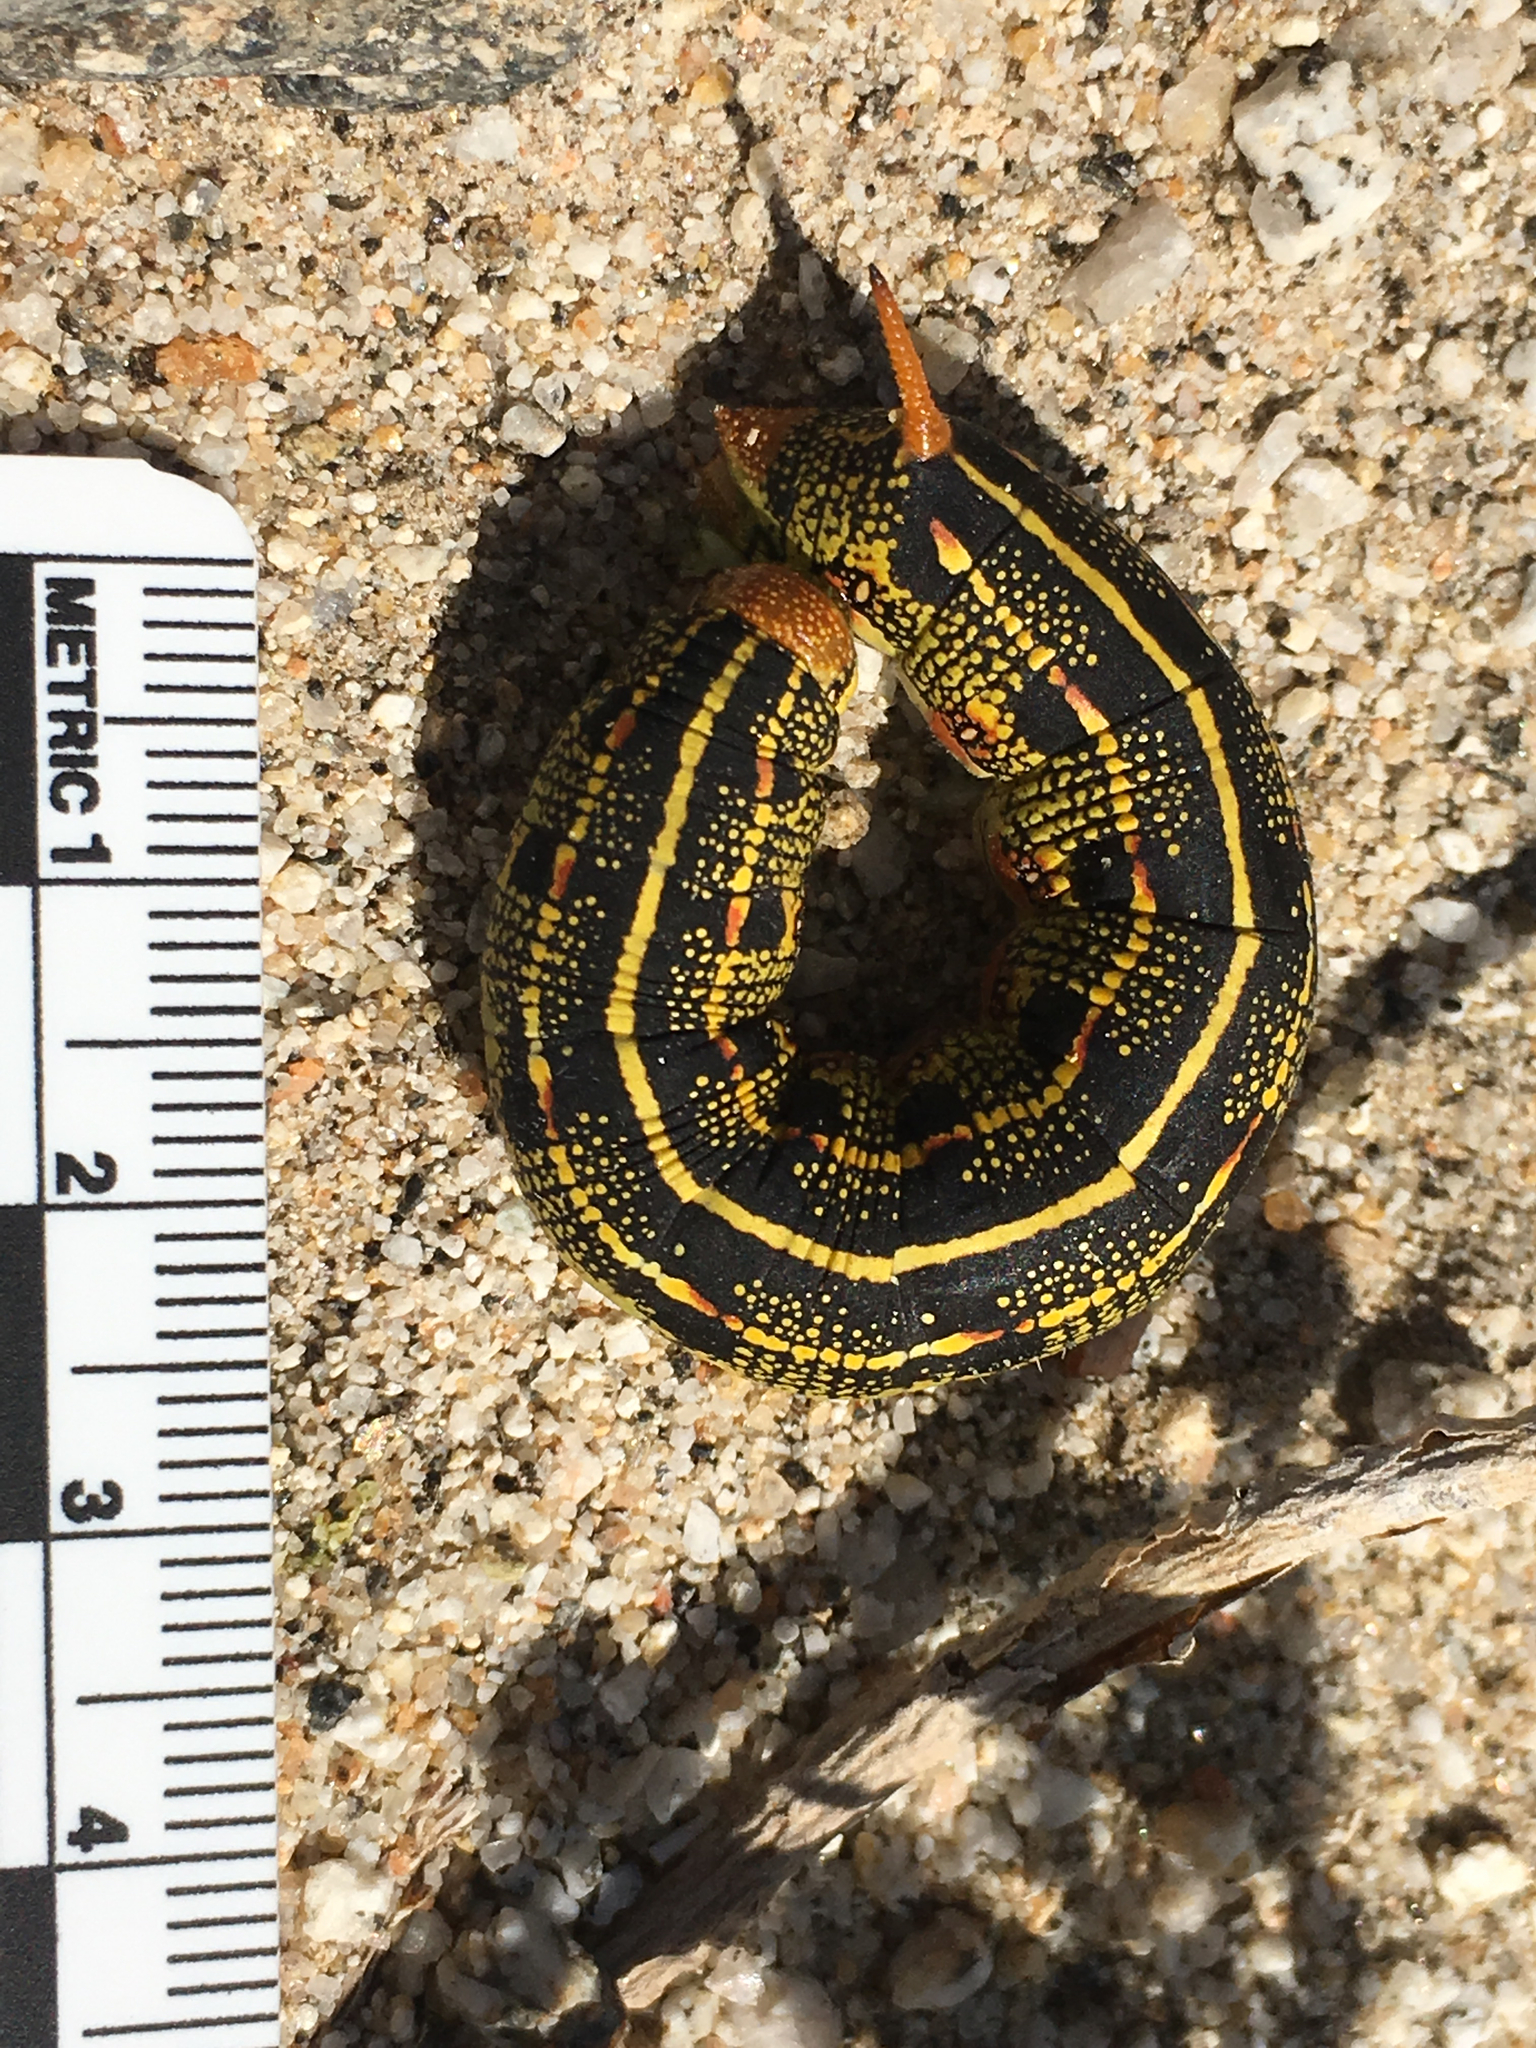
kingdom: Animalia
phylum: Arthropoda
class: Insecta
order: Lepidoptera
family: Sphingidae
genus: Hyles
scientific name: Hyles lineata
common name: White-lined sphinx
